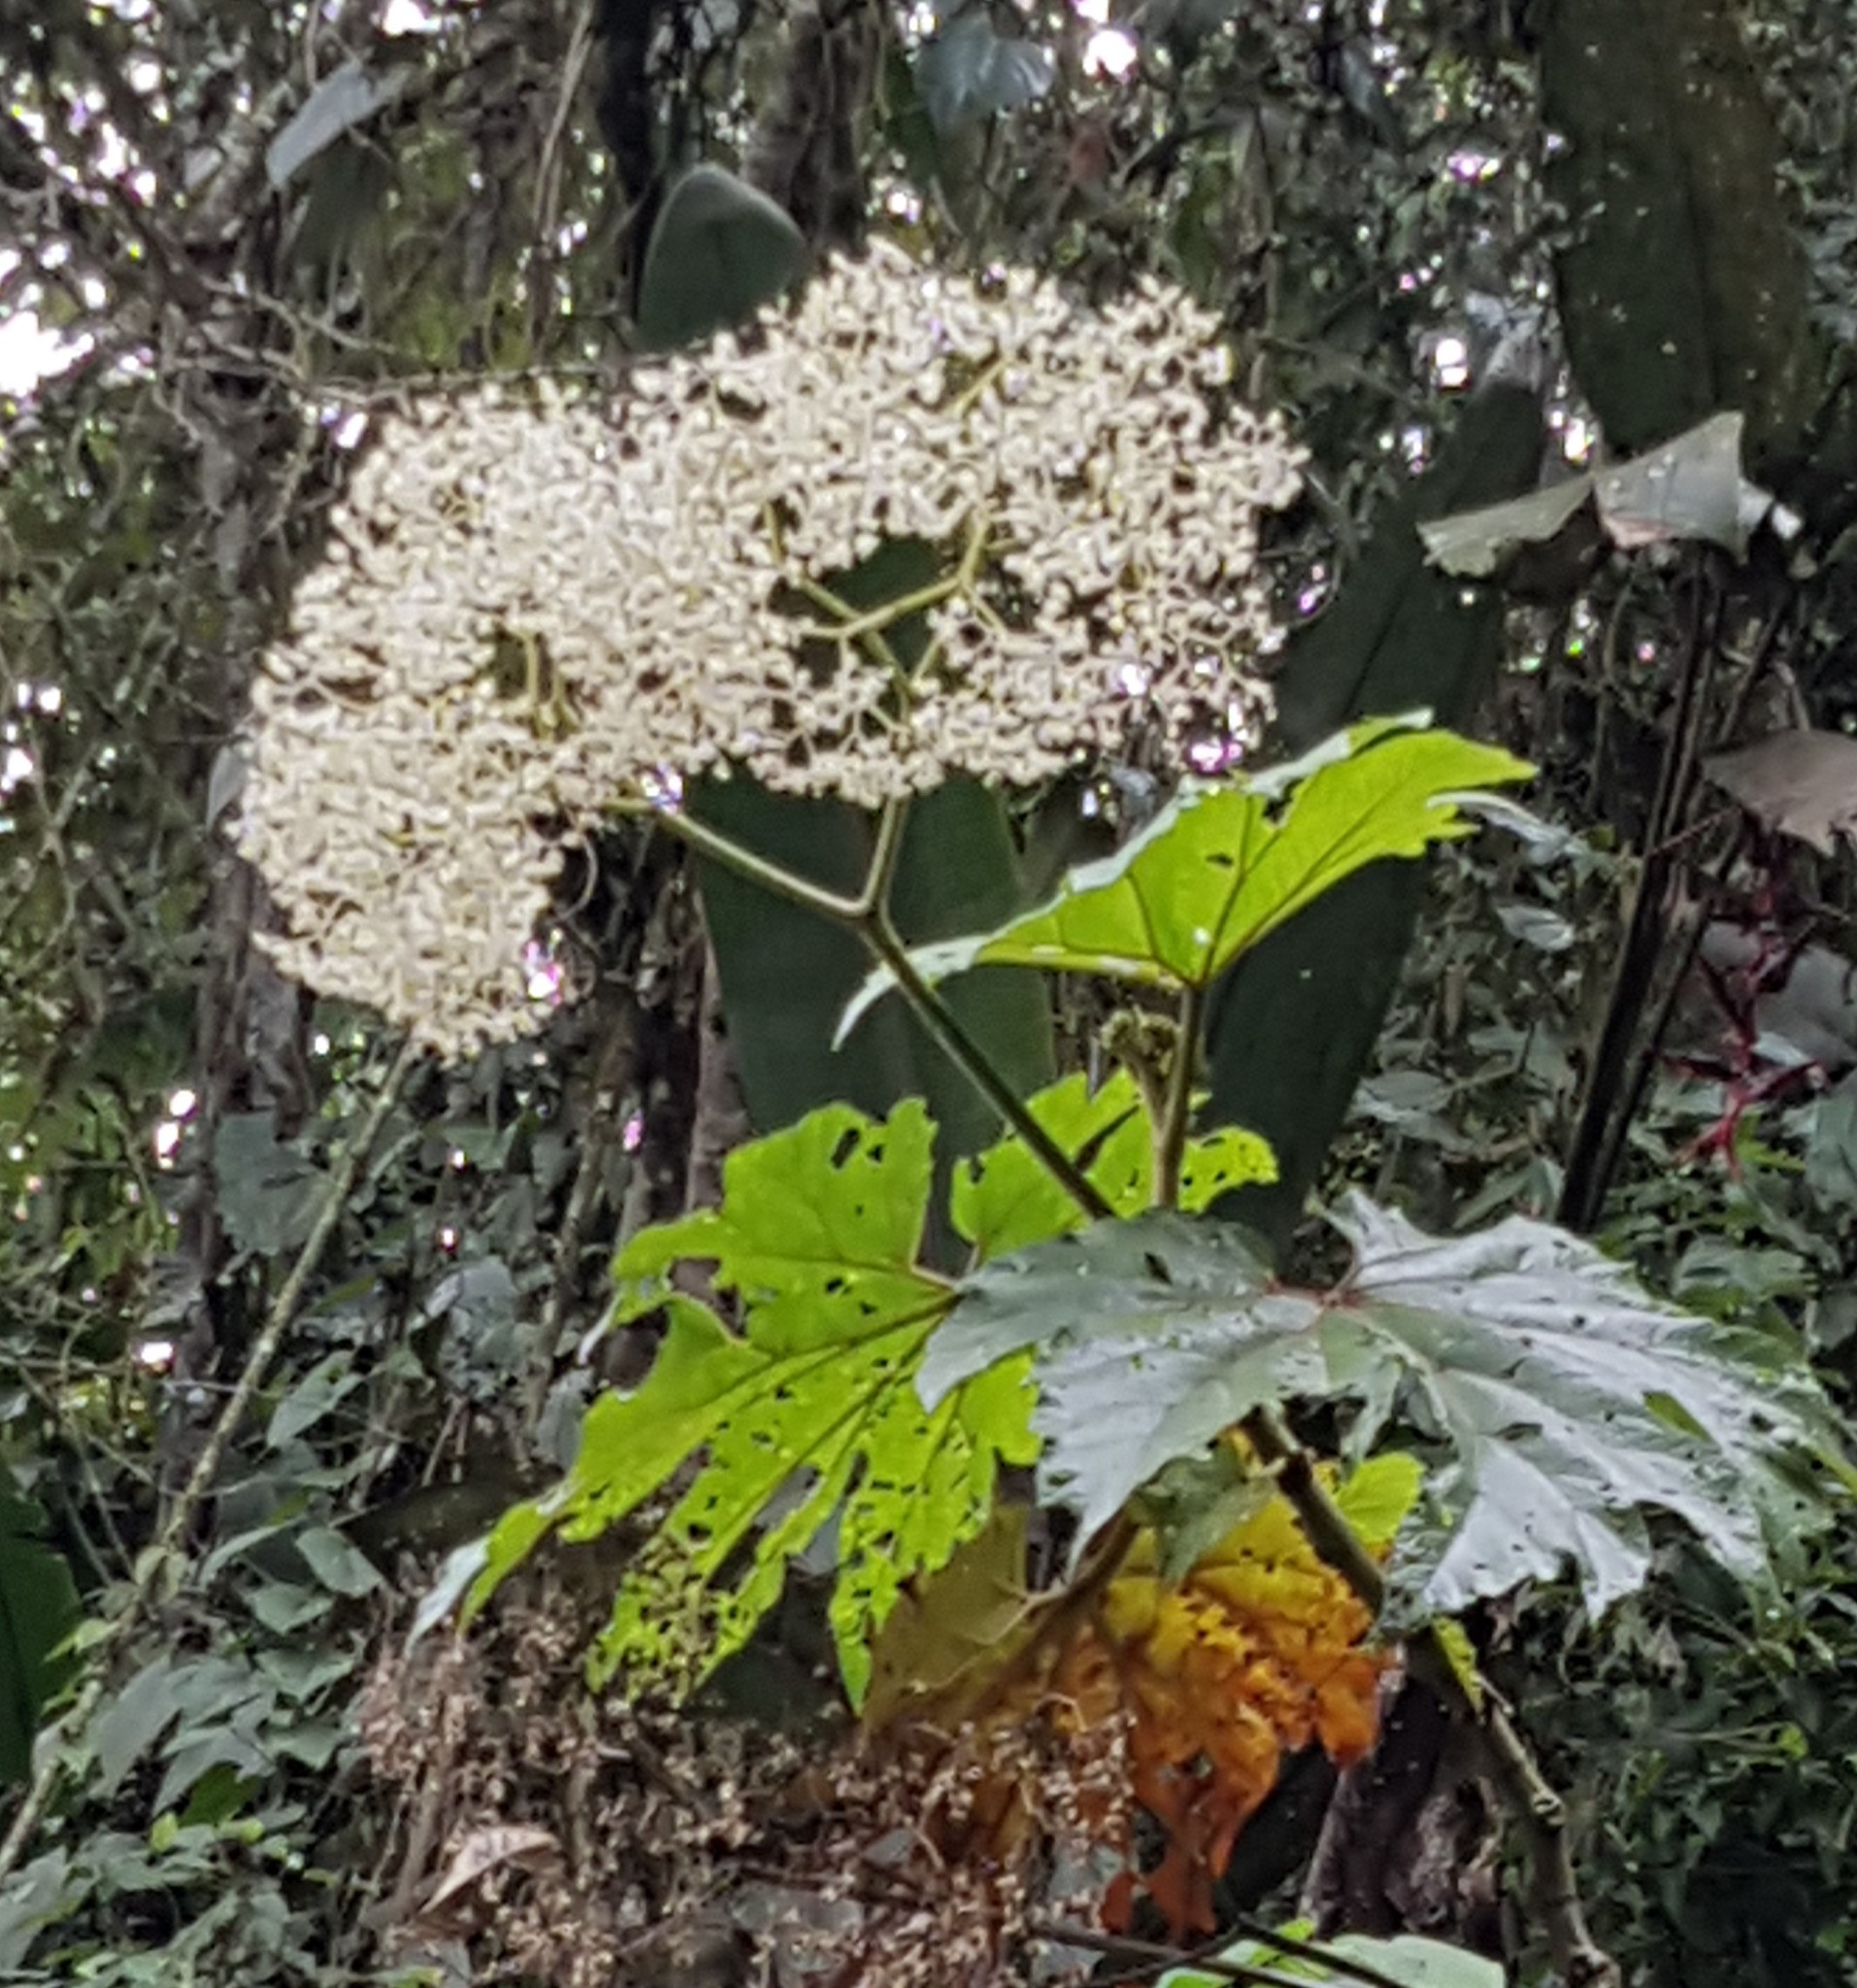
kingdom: Plantae
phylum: Tracheophyta
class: Magnoliopsida
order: Cucurbitales
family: Begoniaceae
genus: Begonia
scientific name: Begonia parviflora
